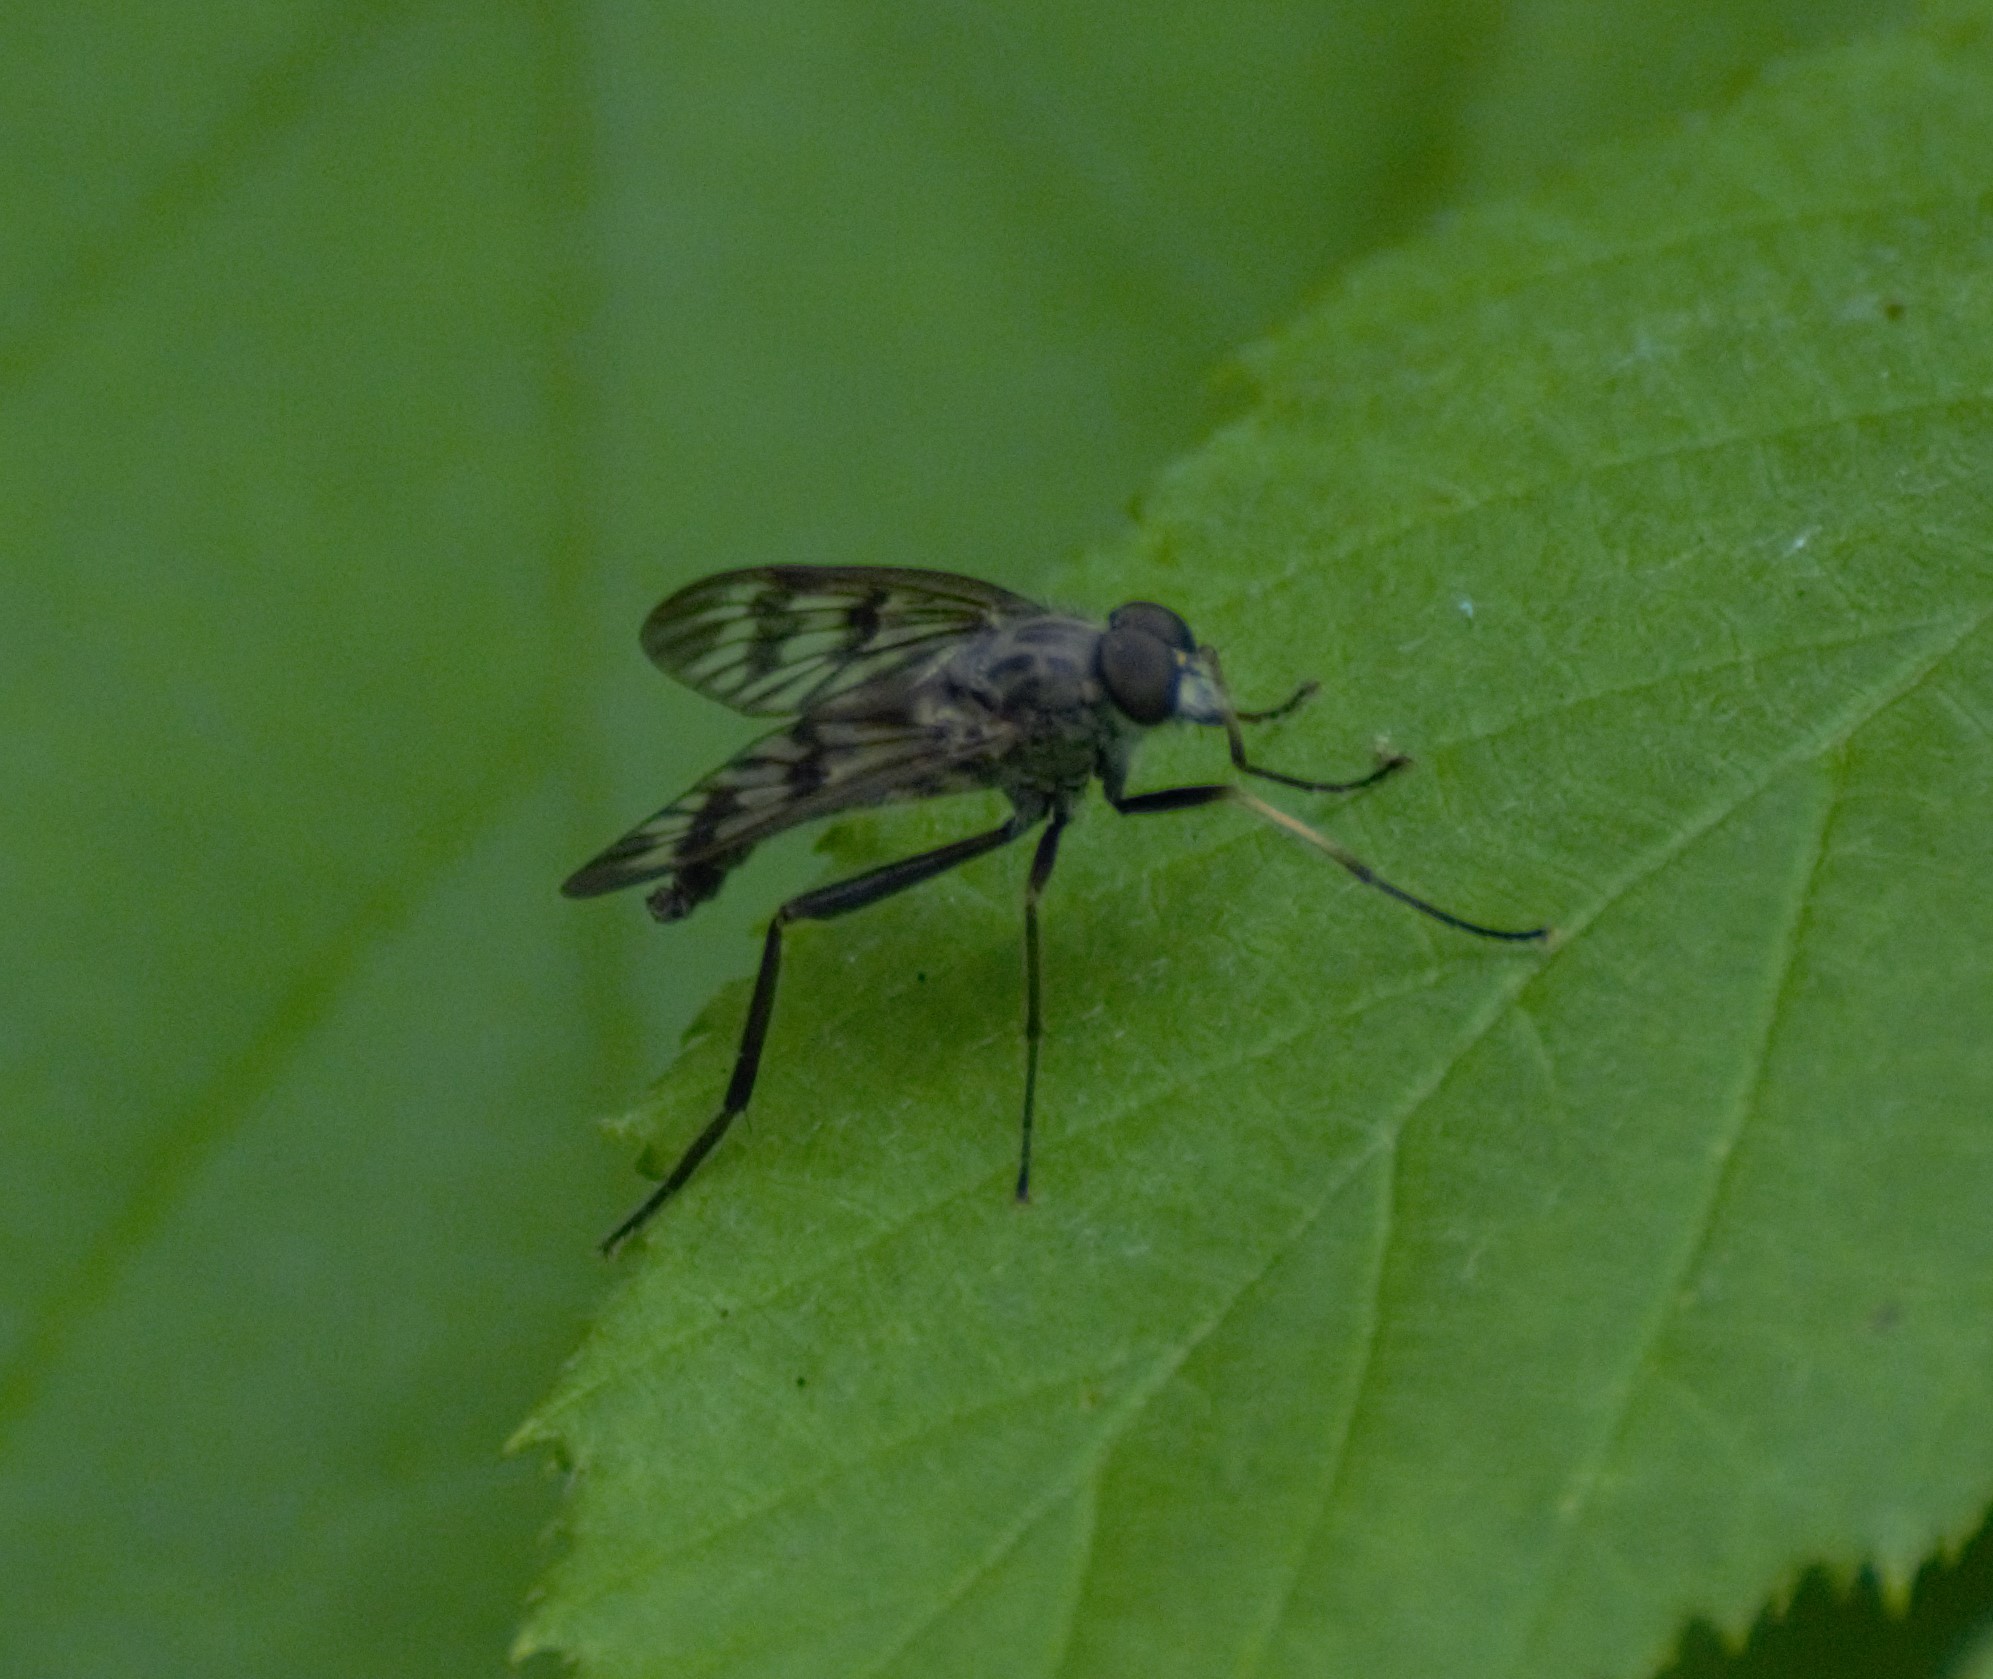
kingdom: Animalia
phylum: Arthropoda
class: Insecta
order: Diptera
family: Rhagionidae
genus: Rhagio
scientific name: Rhagio mystaceus
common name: Common snipe fly
